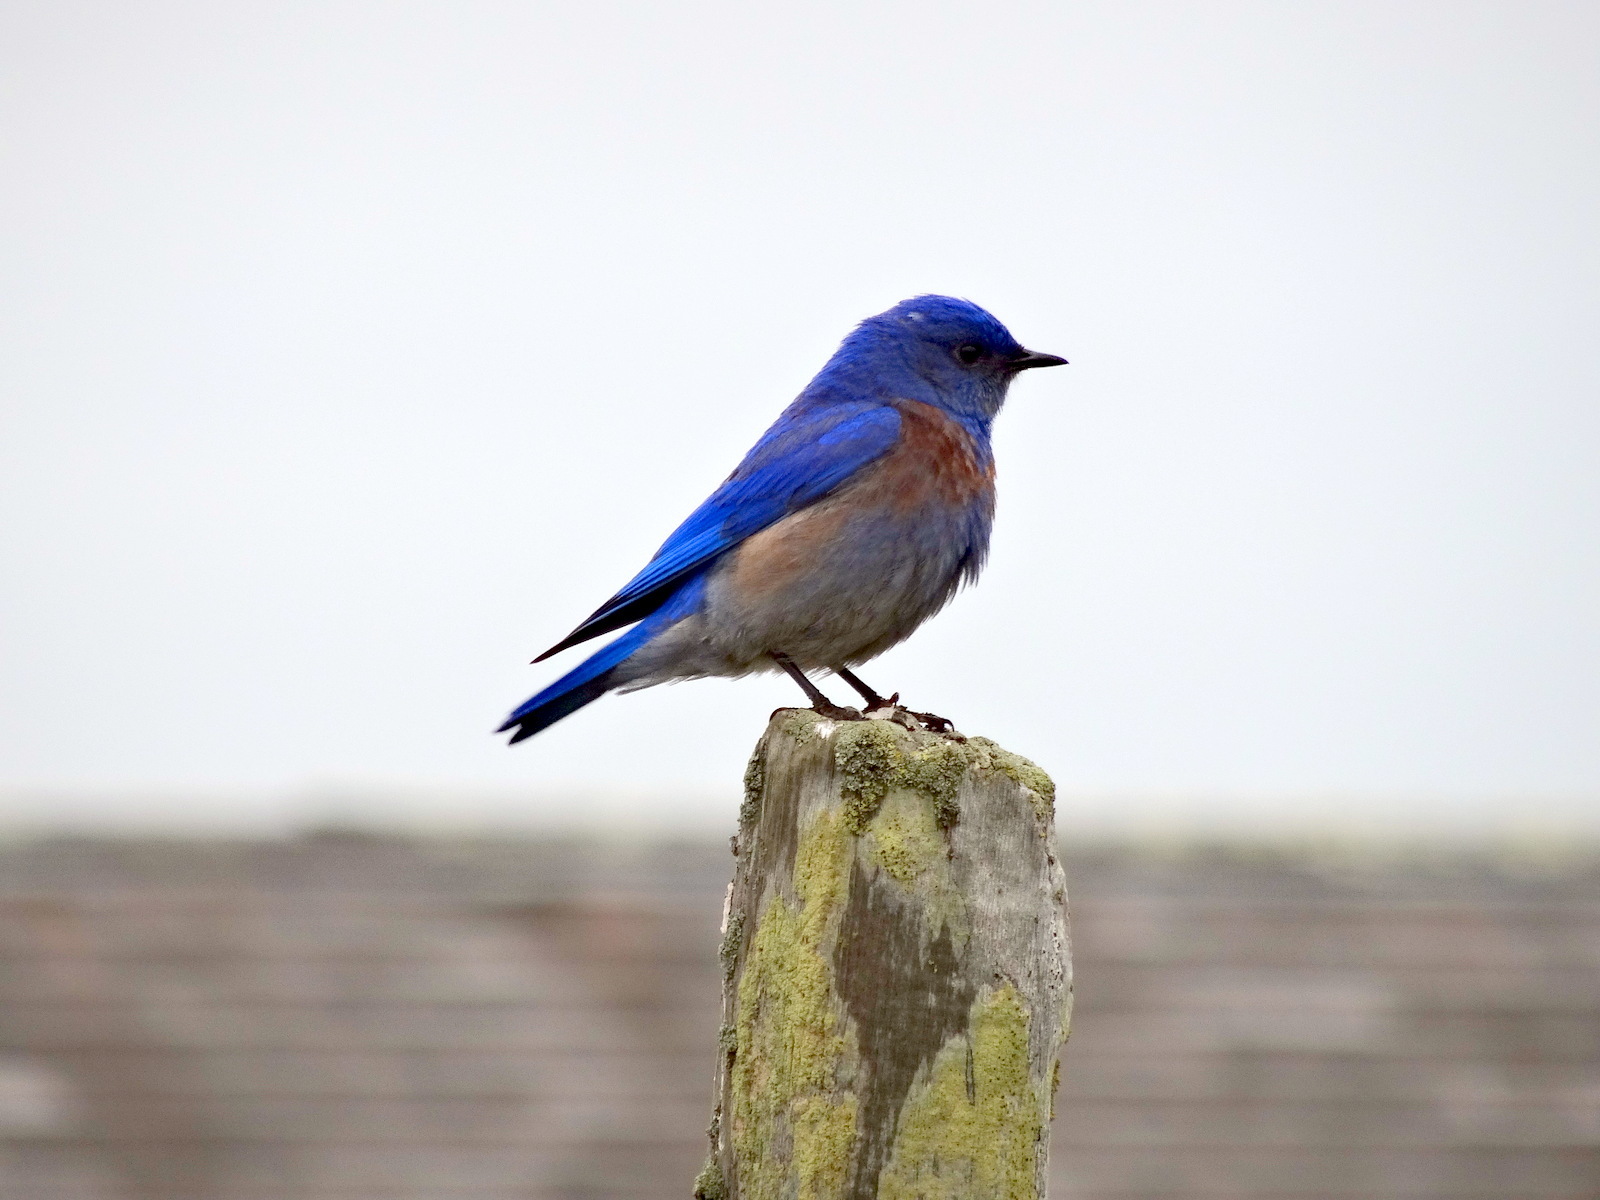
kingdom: Animalia
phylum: Chordata
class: Aves
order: Passeriformes
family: Turdidae
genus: Sialia
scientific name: Sialia mexicana
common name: Western bluebird
